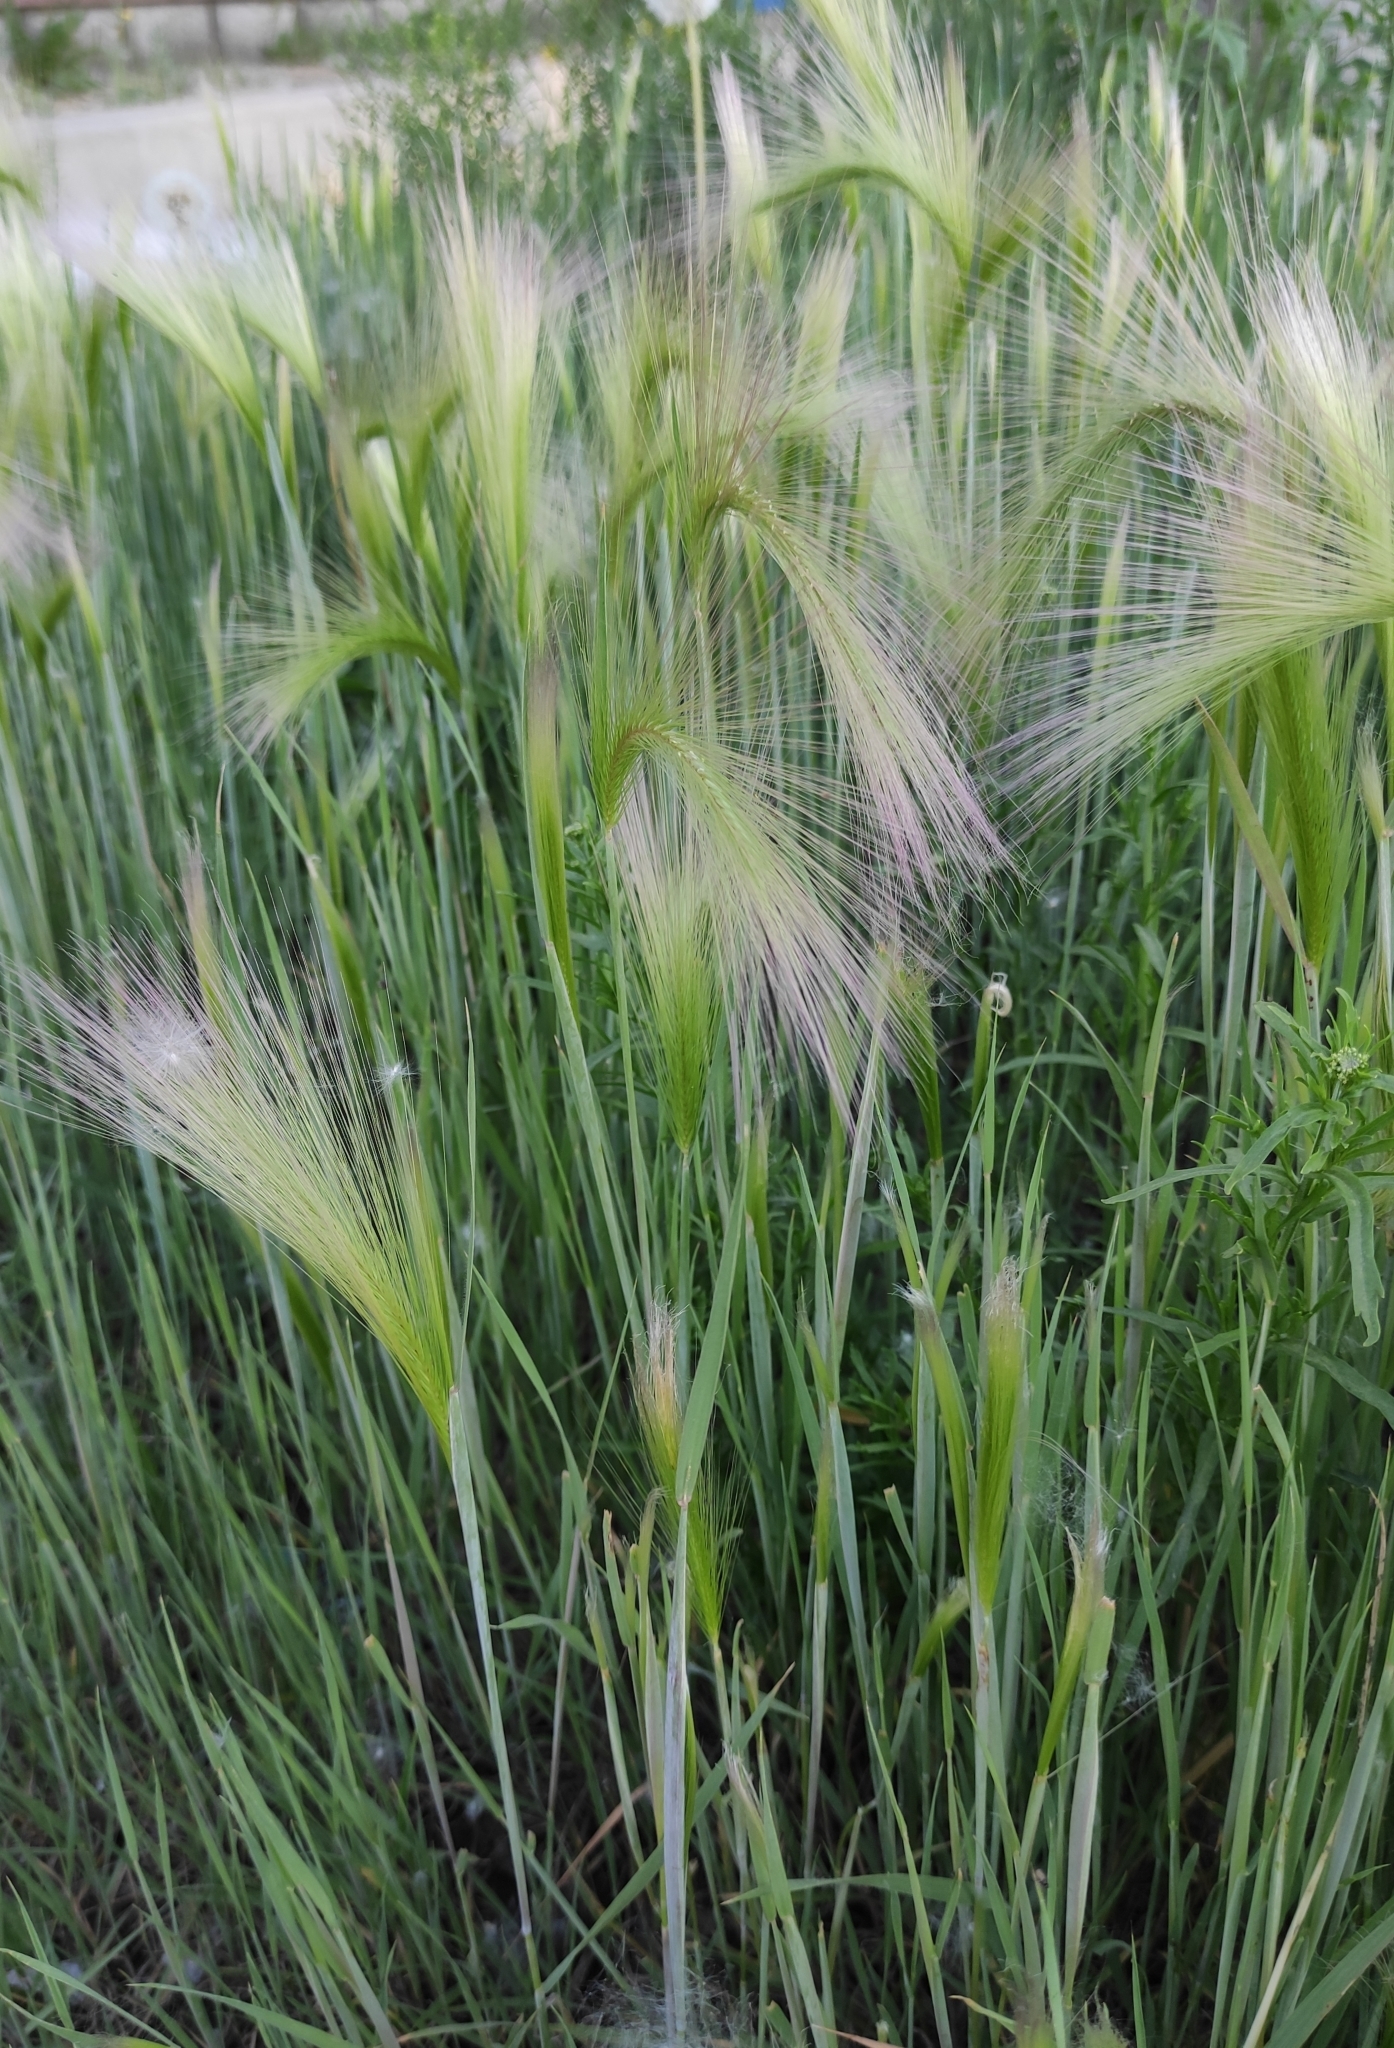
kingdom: Plantae
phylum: Tracheophyta
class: Liliopsida
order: Poales
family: Poaceae
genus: Hordeum
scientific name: Hordeum jubatum
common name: Foxtail barley
